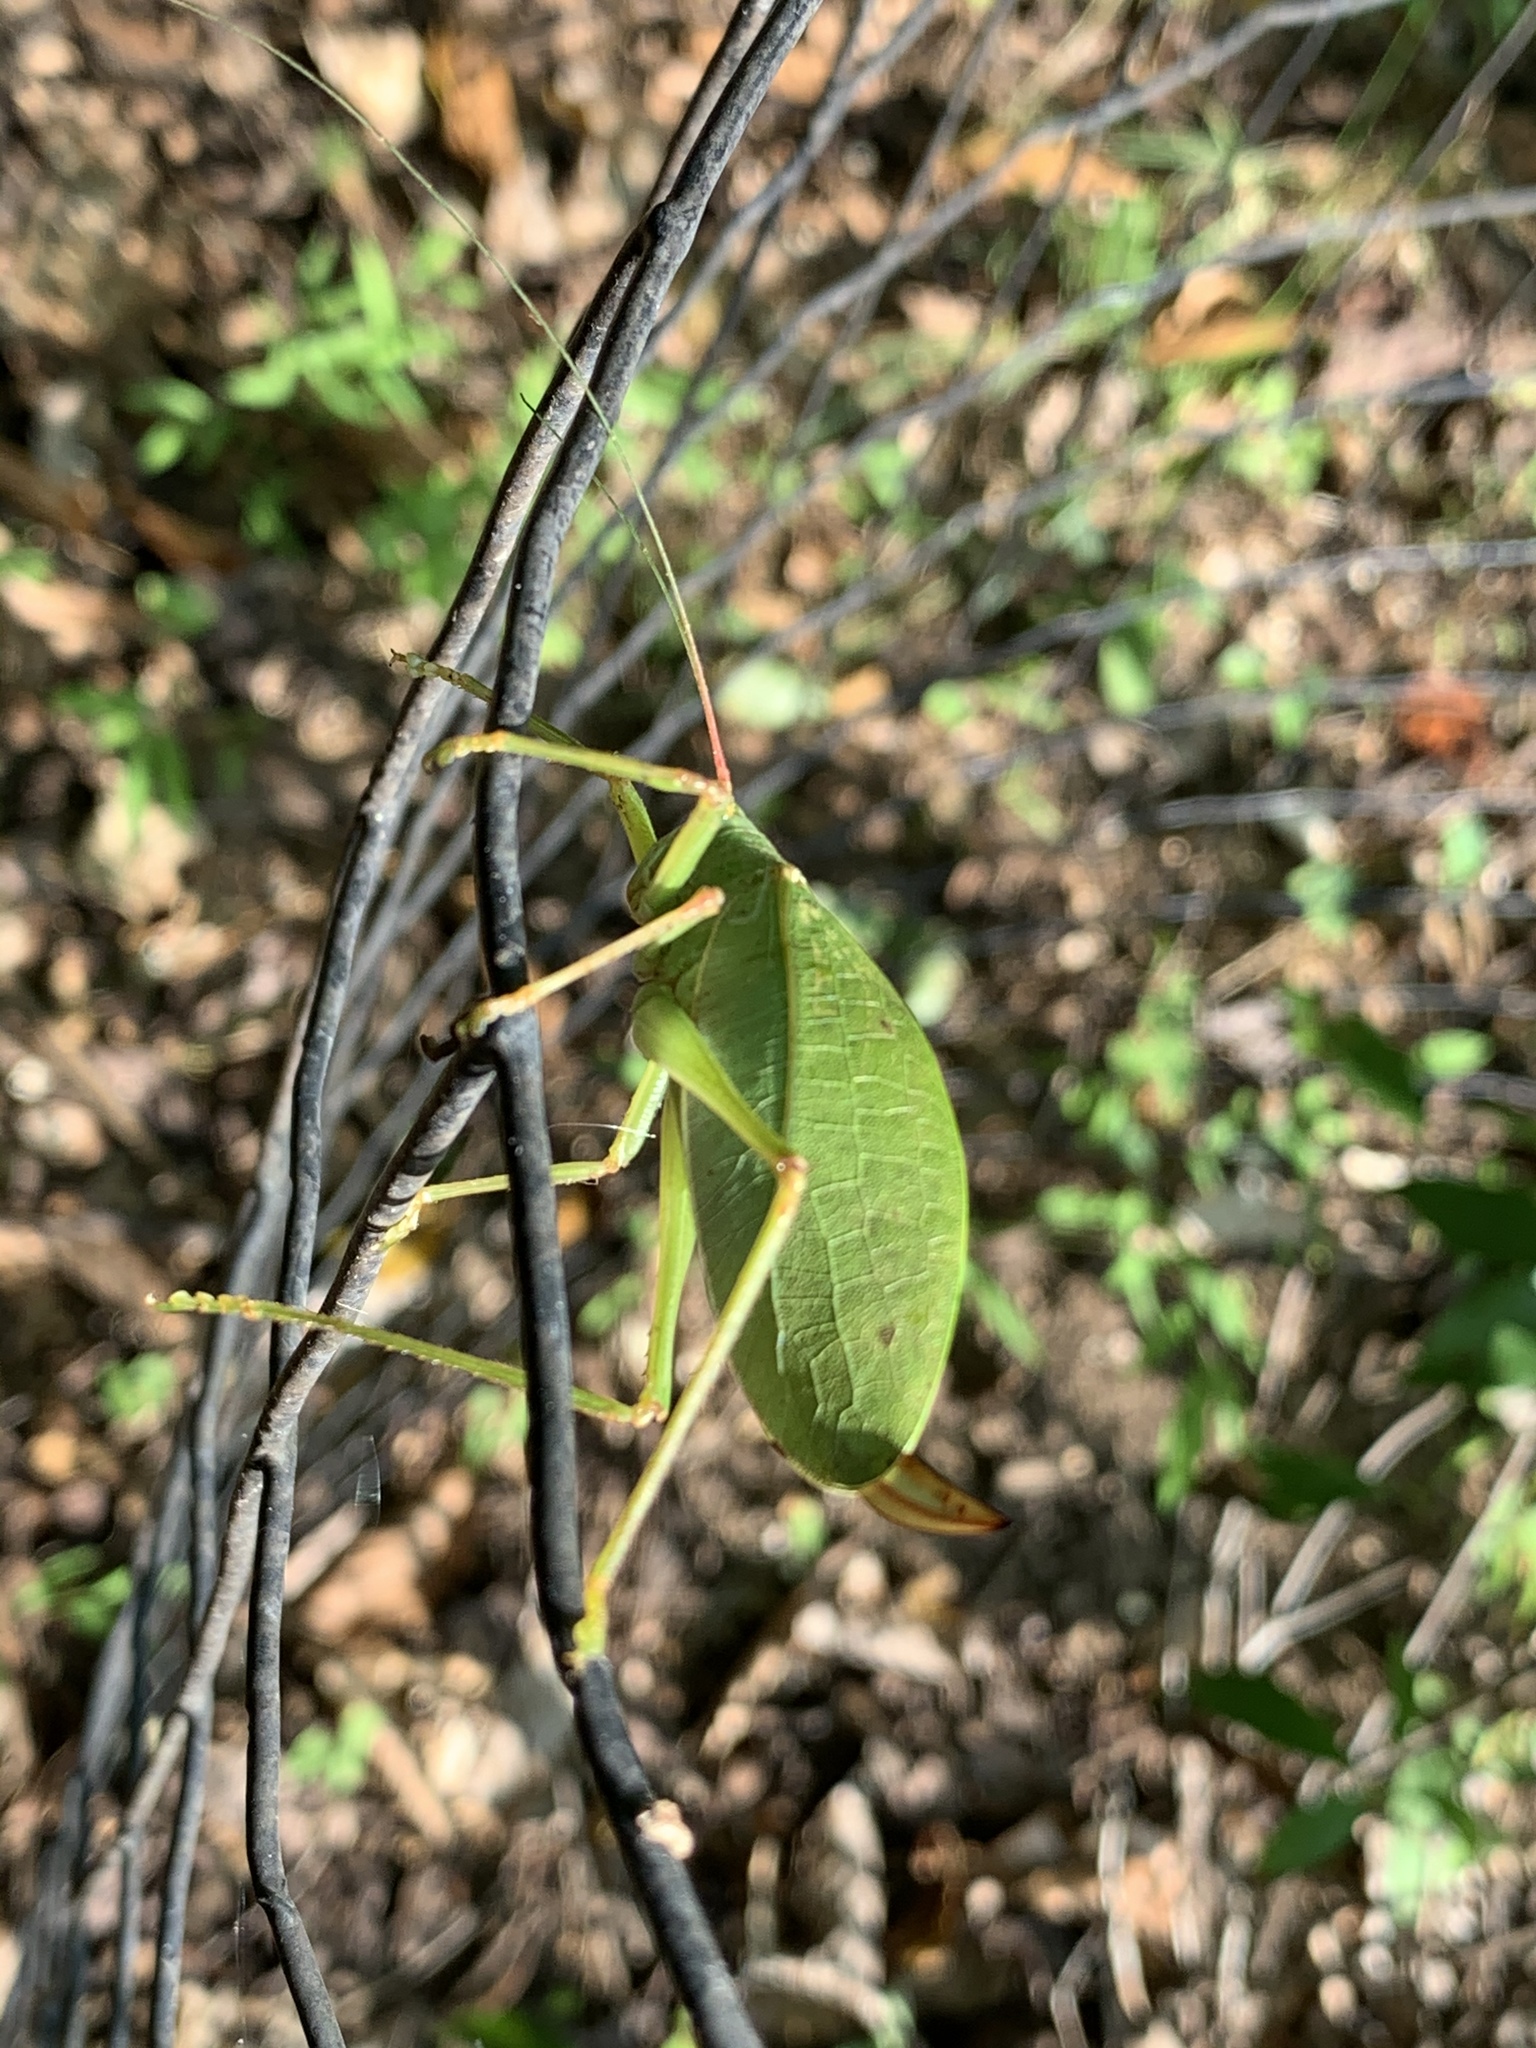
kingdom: Animalia
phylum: Arthropoda
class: Insecta
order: Orthoptera
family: Tettigoniidae
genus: Pterophylla
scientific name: Pterophylla camellifolia
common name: Common true katydid
